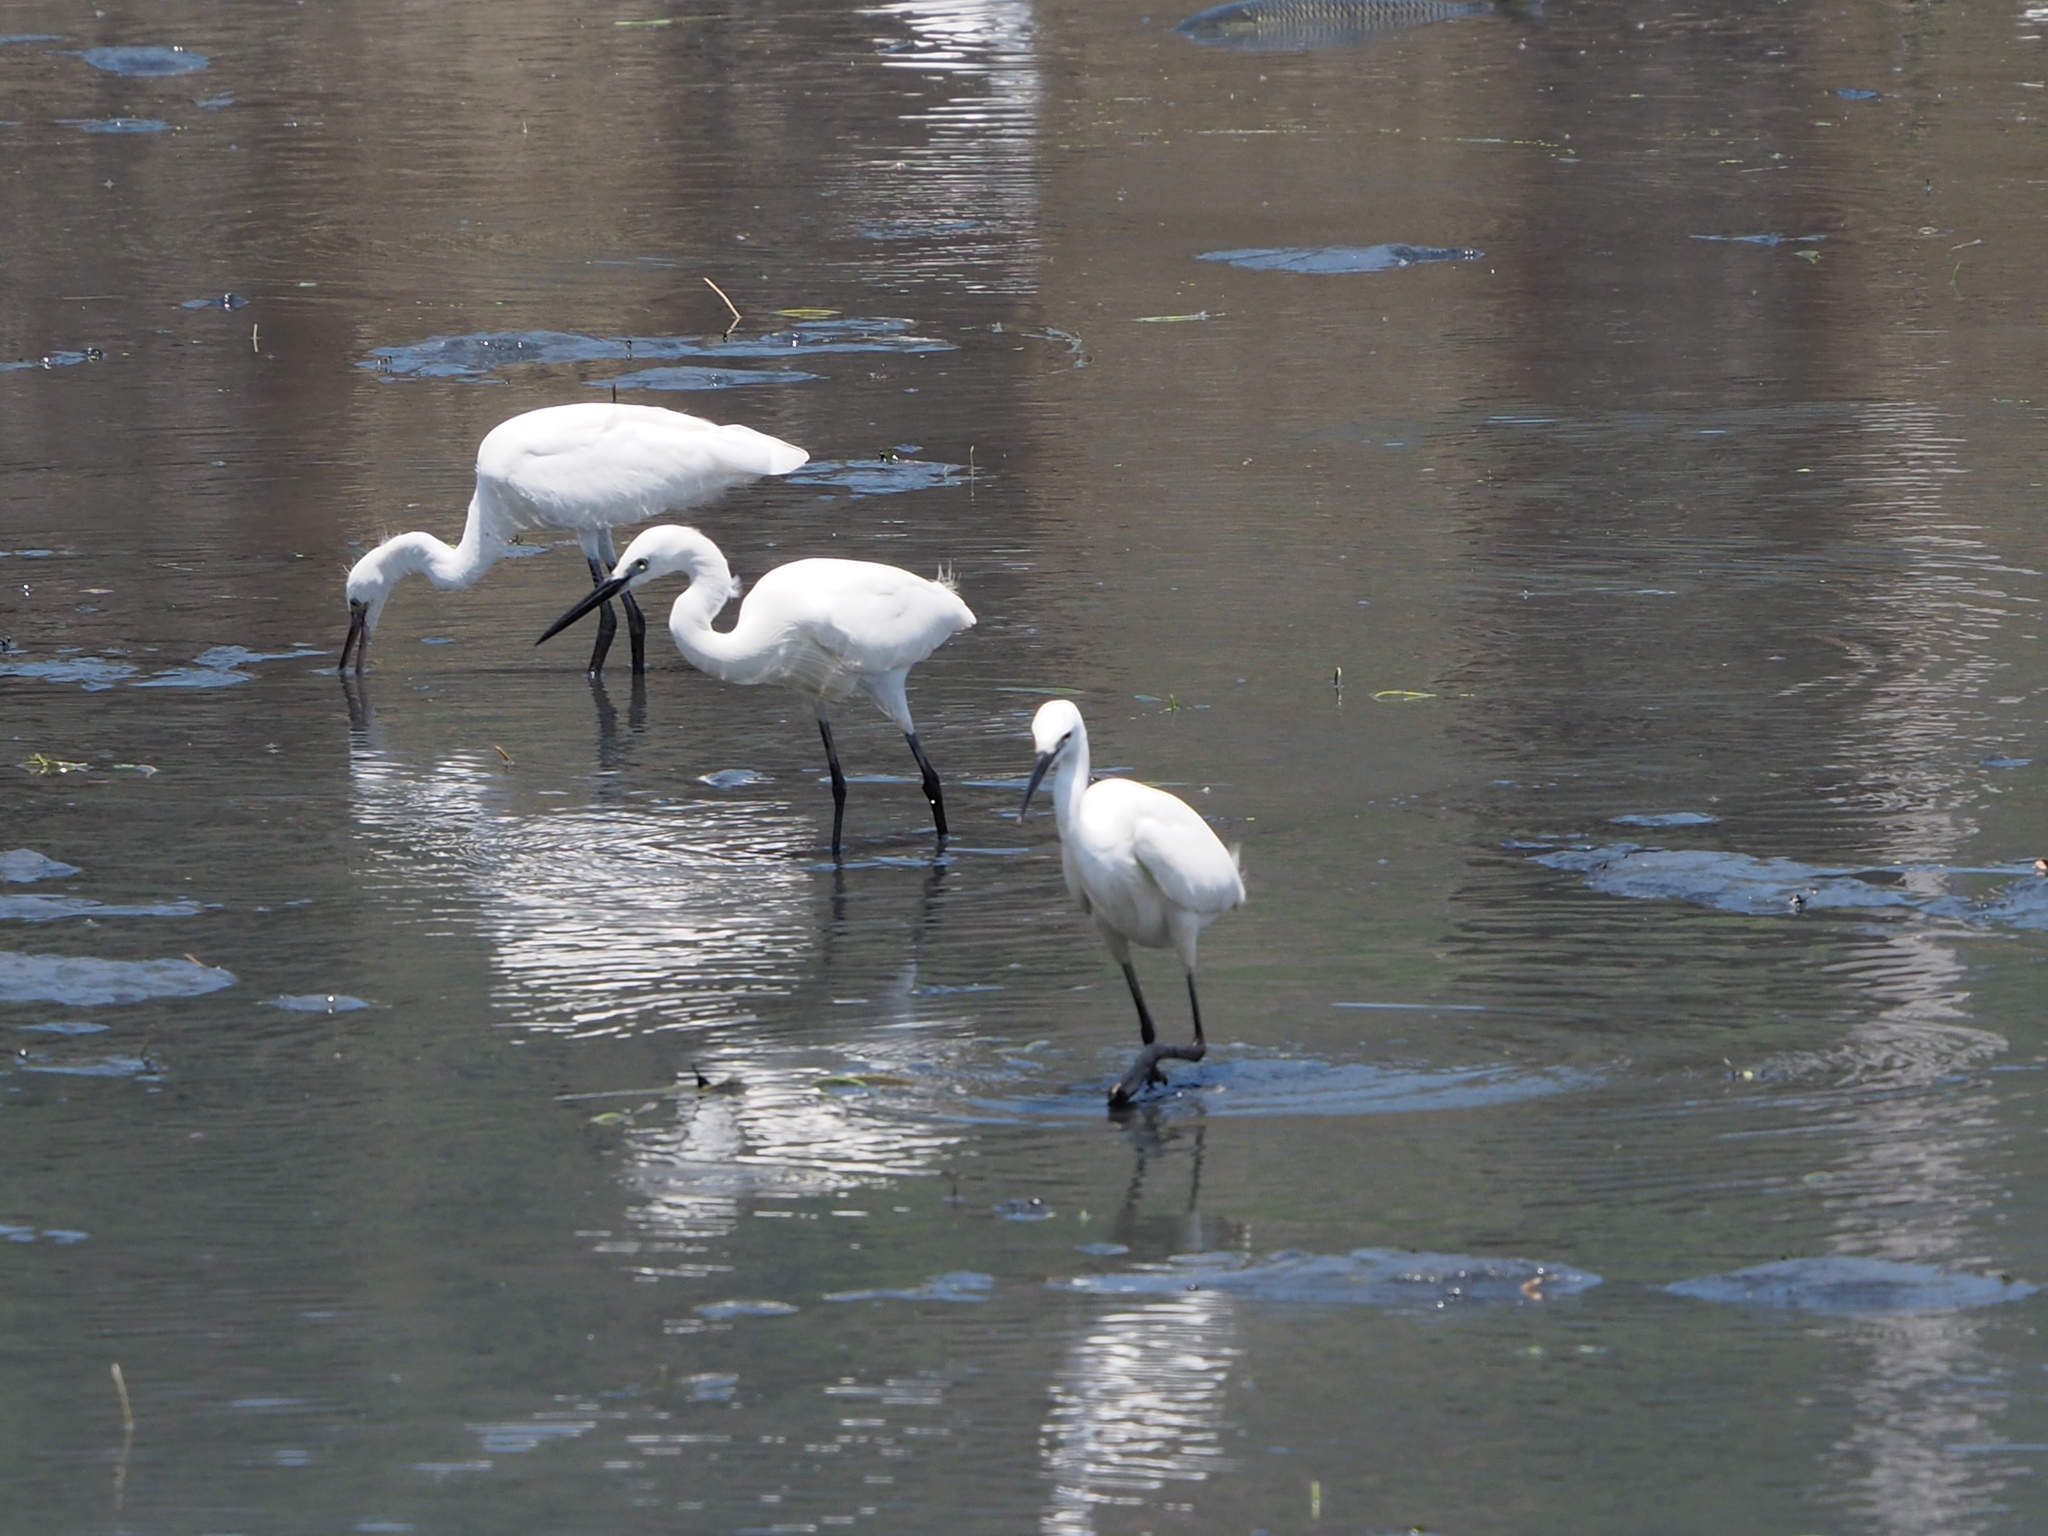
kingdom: Animalia
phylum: Chordata
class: Aves
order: Pelecaniformes
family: Ardeidae
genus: Egretta
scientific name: Egretta garzetta
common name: Little egret
